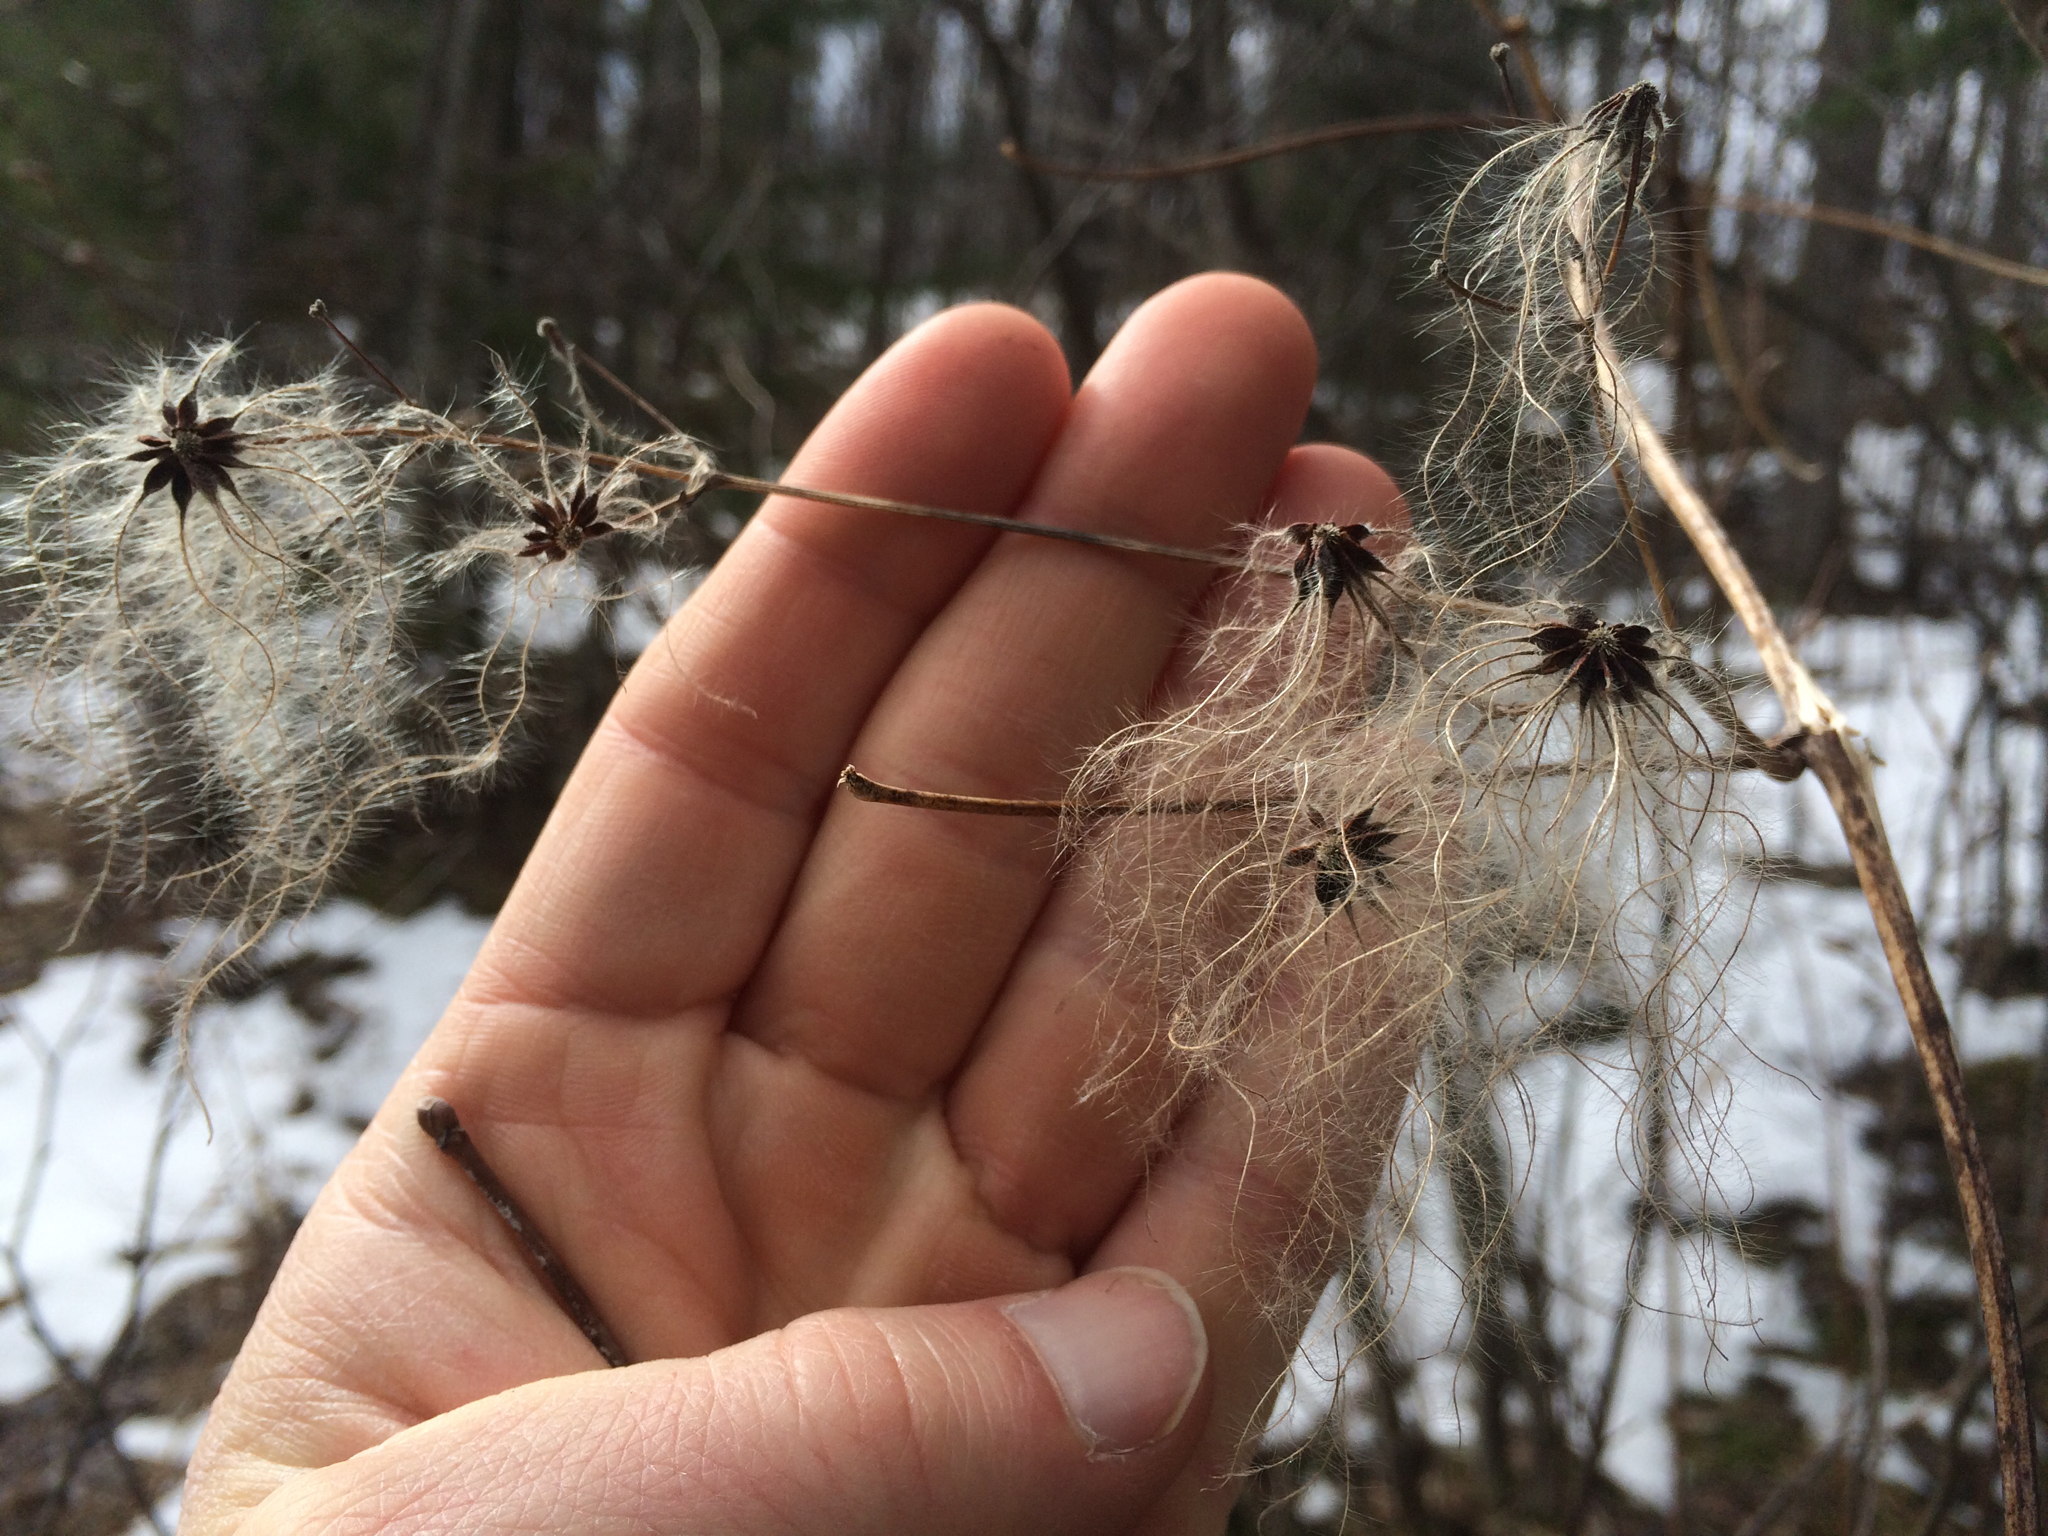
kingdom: Plantae
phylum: Tracheophyta
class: Magnoliopsida
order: Ranunculales
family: Ranunculaceae
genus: Clematis
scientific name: Clematis virginiana
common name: Virgin's-bower
